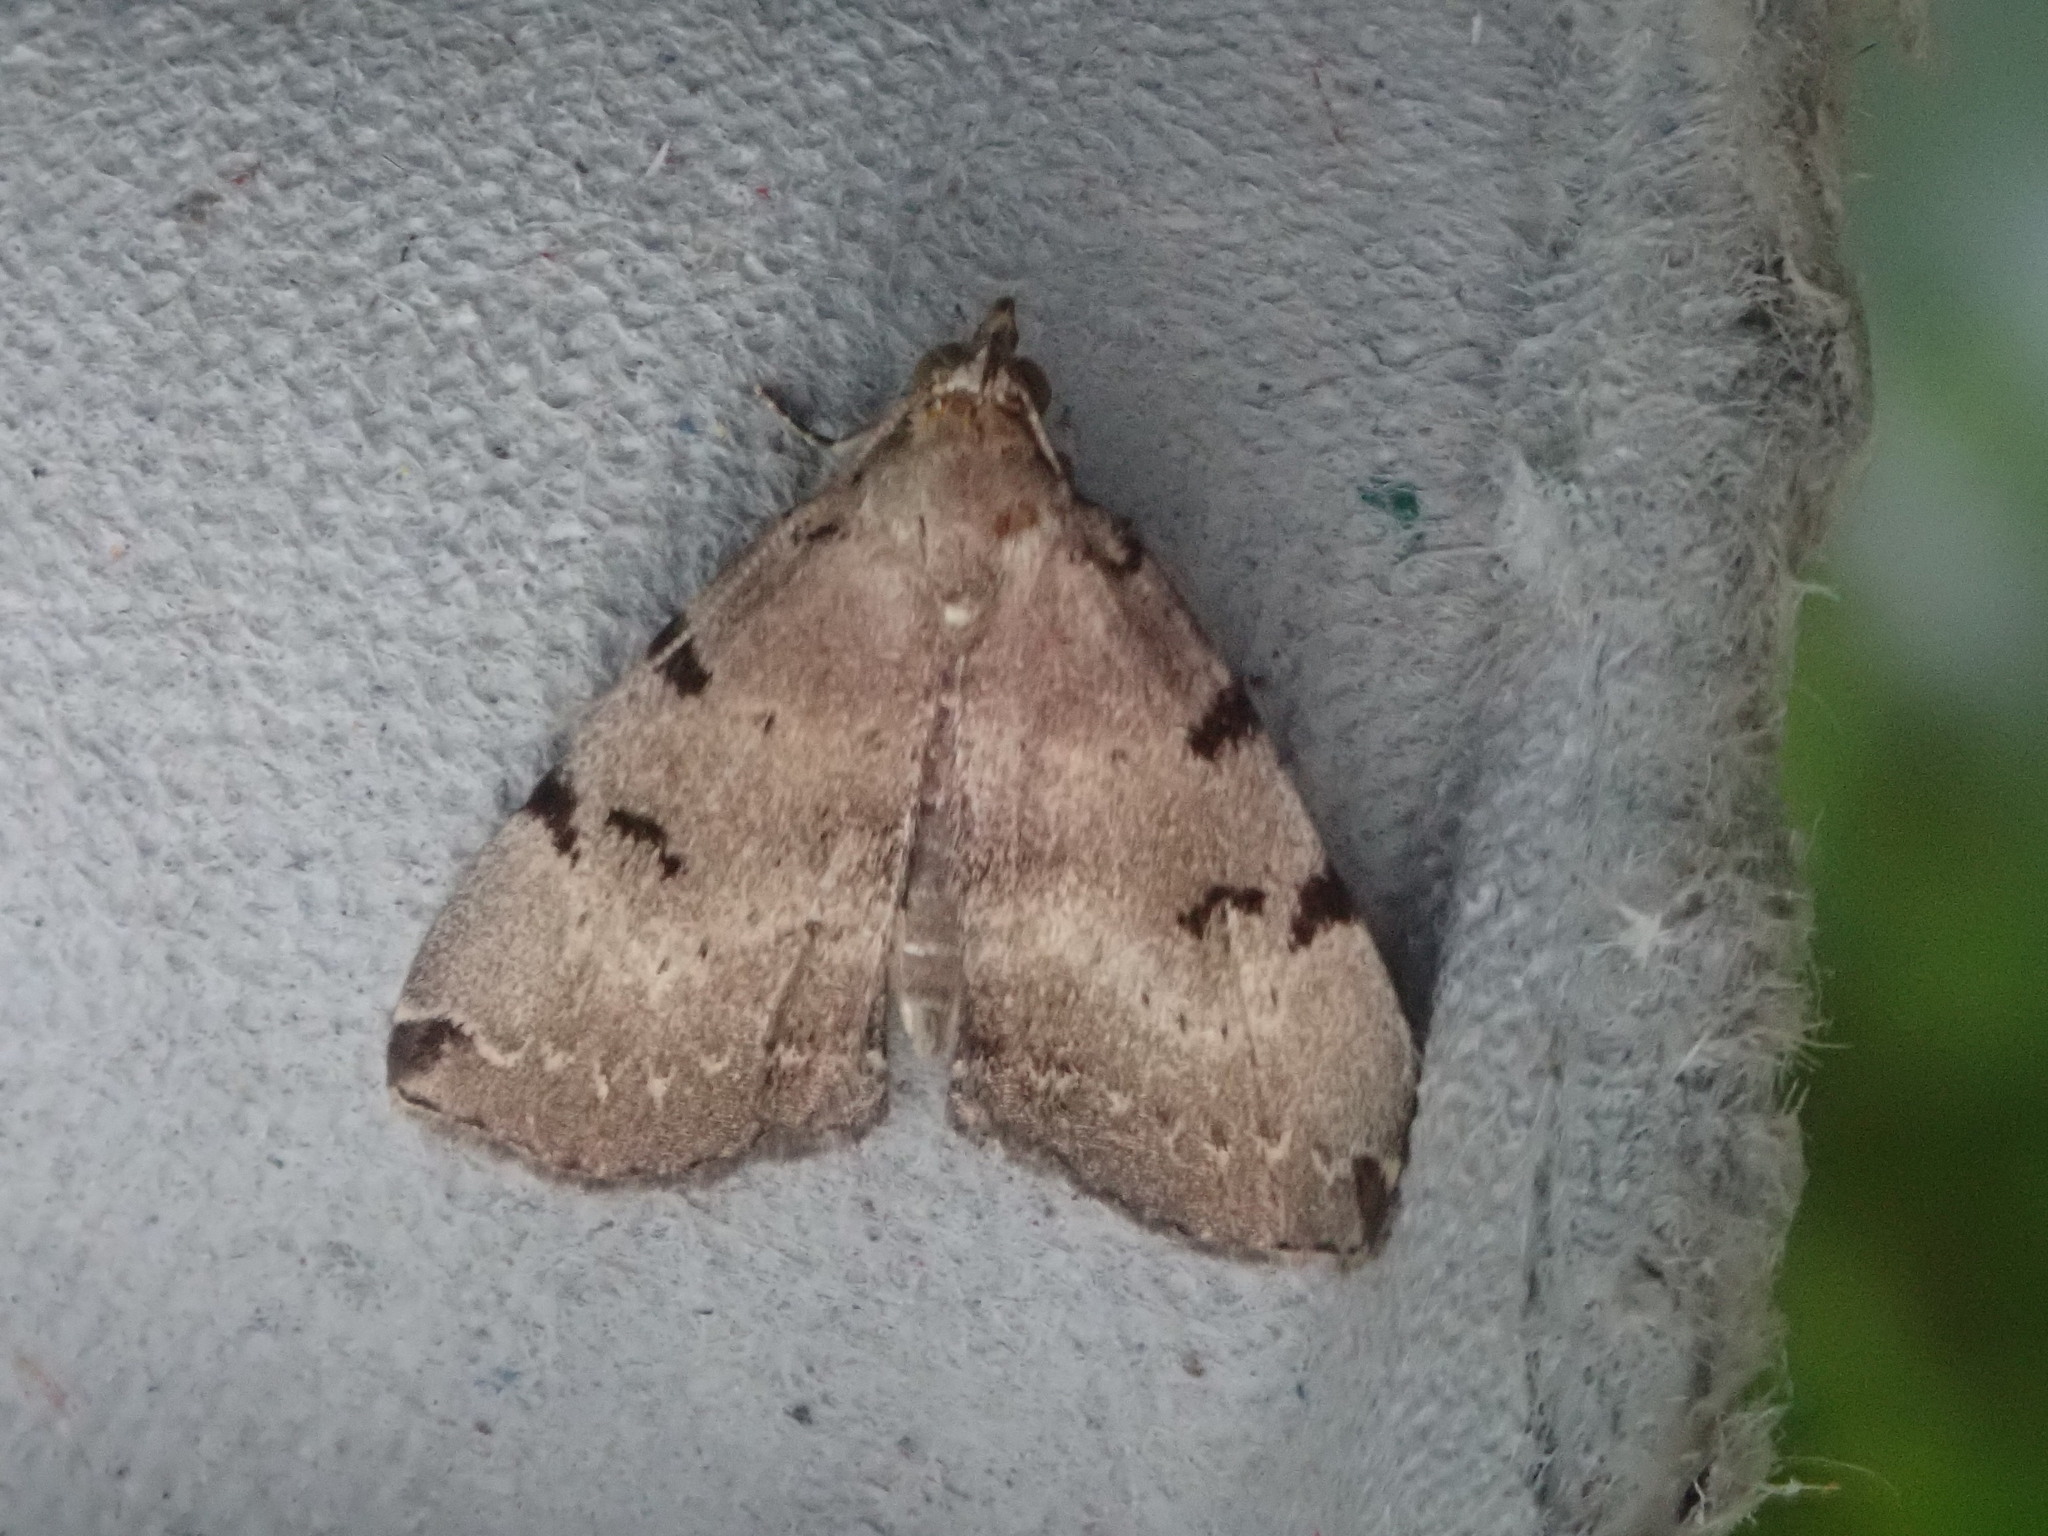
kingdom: Animalia
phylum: Arthropoda
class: Insecta
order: Lepidoptera
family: Erebidae
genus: Zanclognatha
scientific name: Zanclognatha lituralis
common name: Lettered fan-foot
